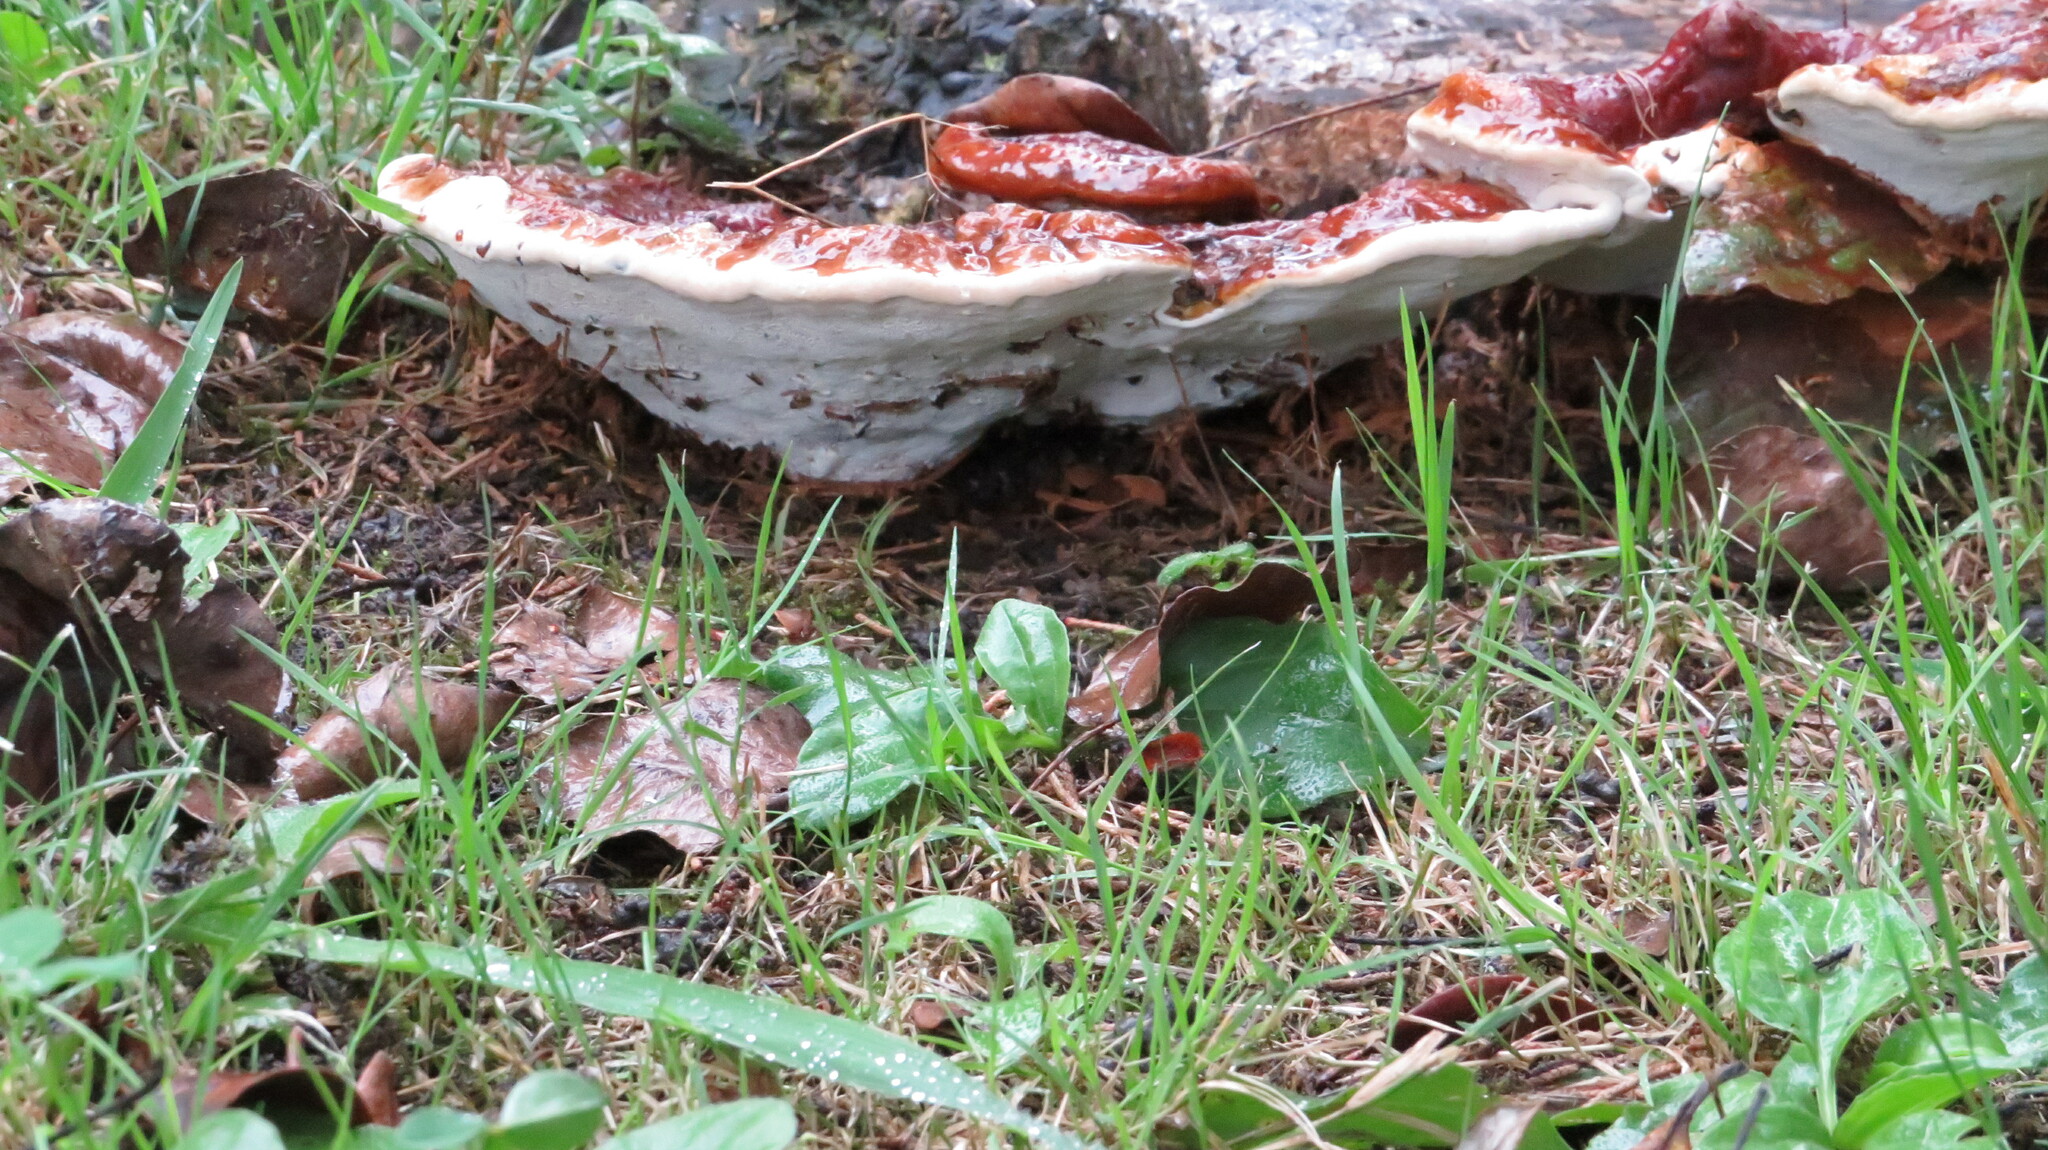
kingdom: Fungi
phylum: Basidiomycota
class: Agaricomycetes
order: Polyporales
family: Polyporaceae
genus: Ganoderma
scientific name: Ganoderma lucidum
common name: Lacquered bracket
